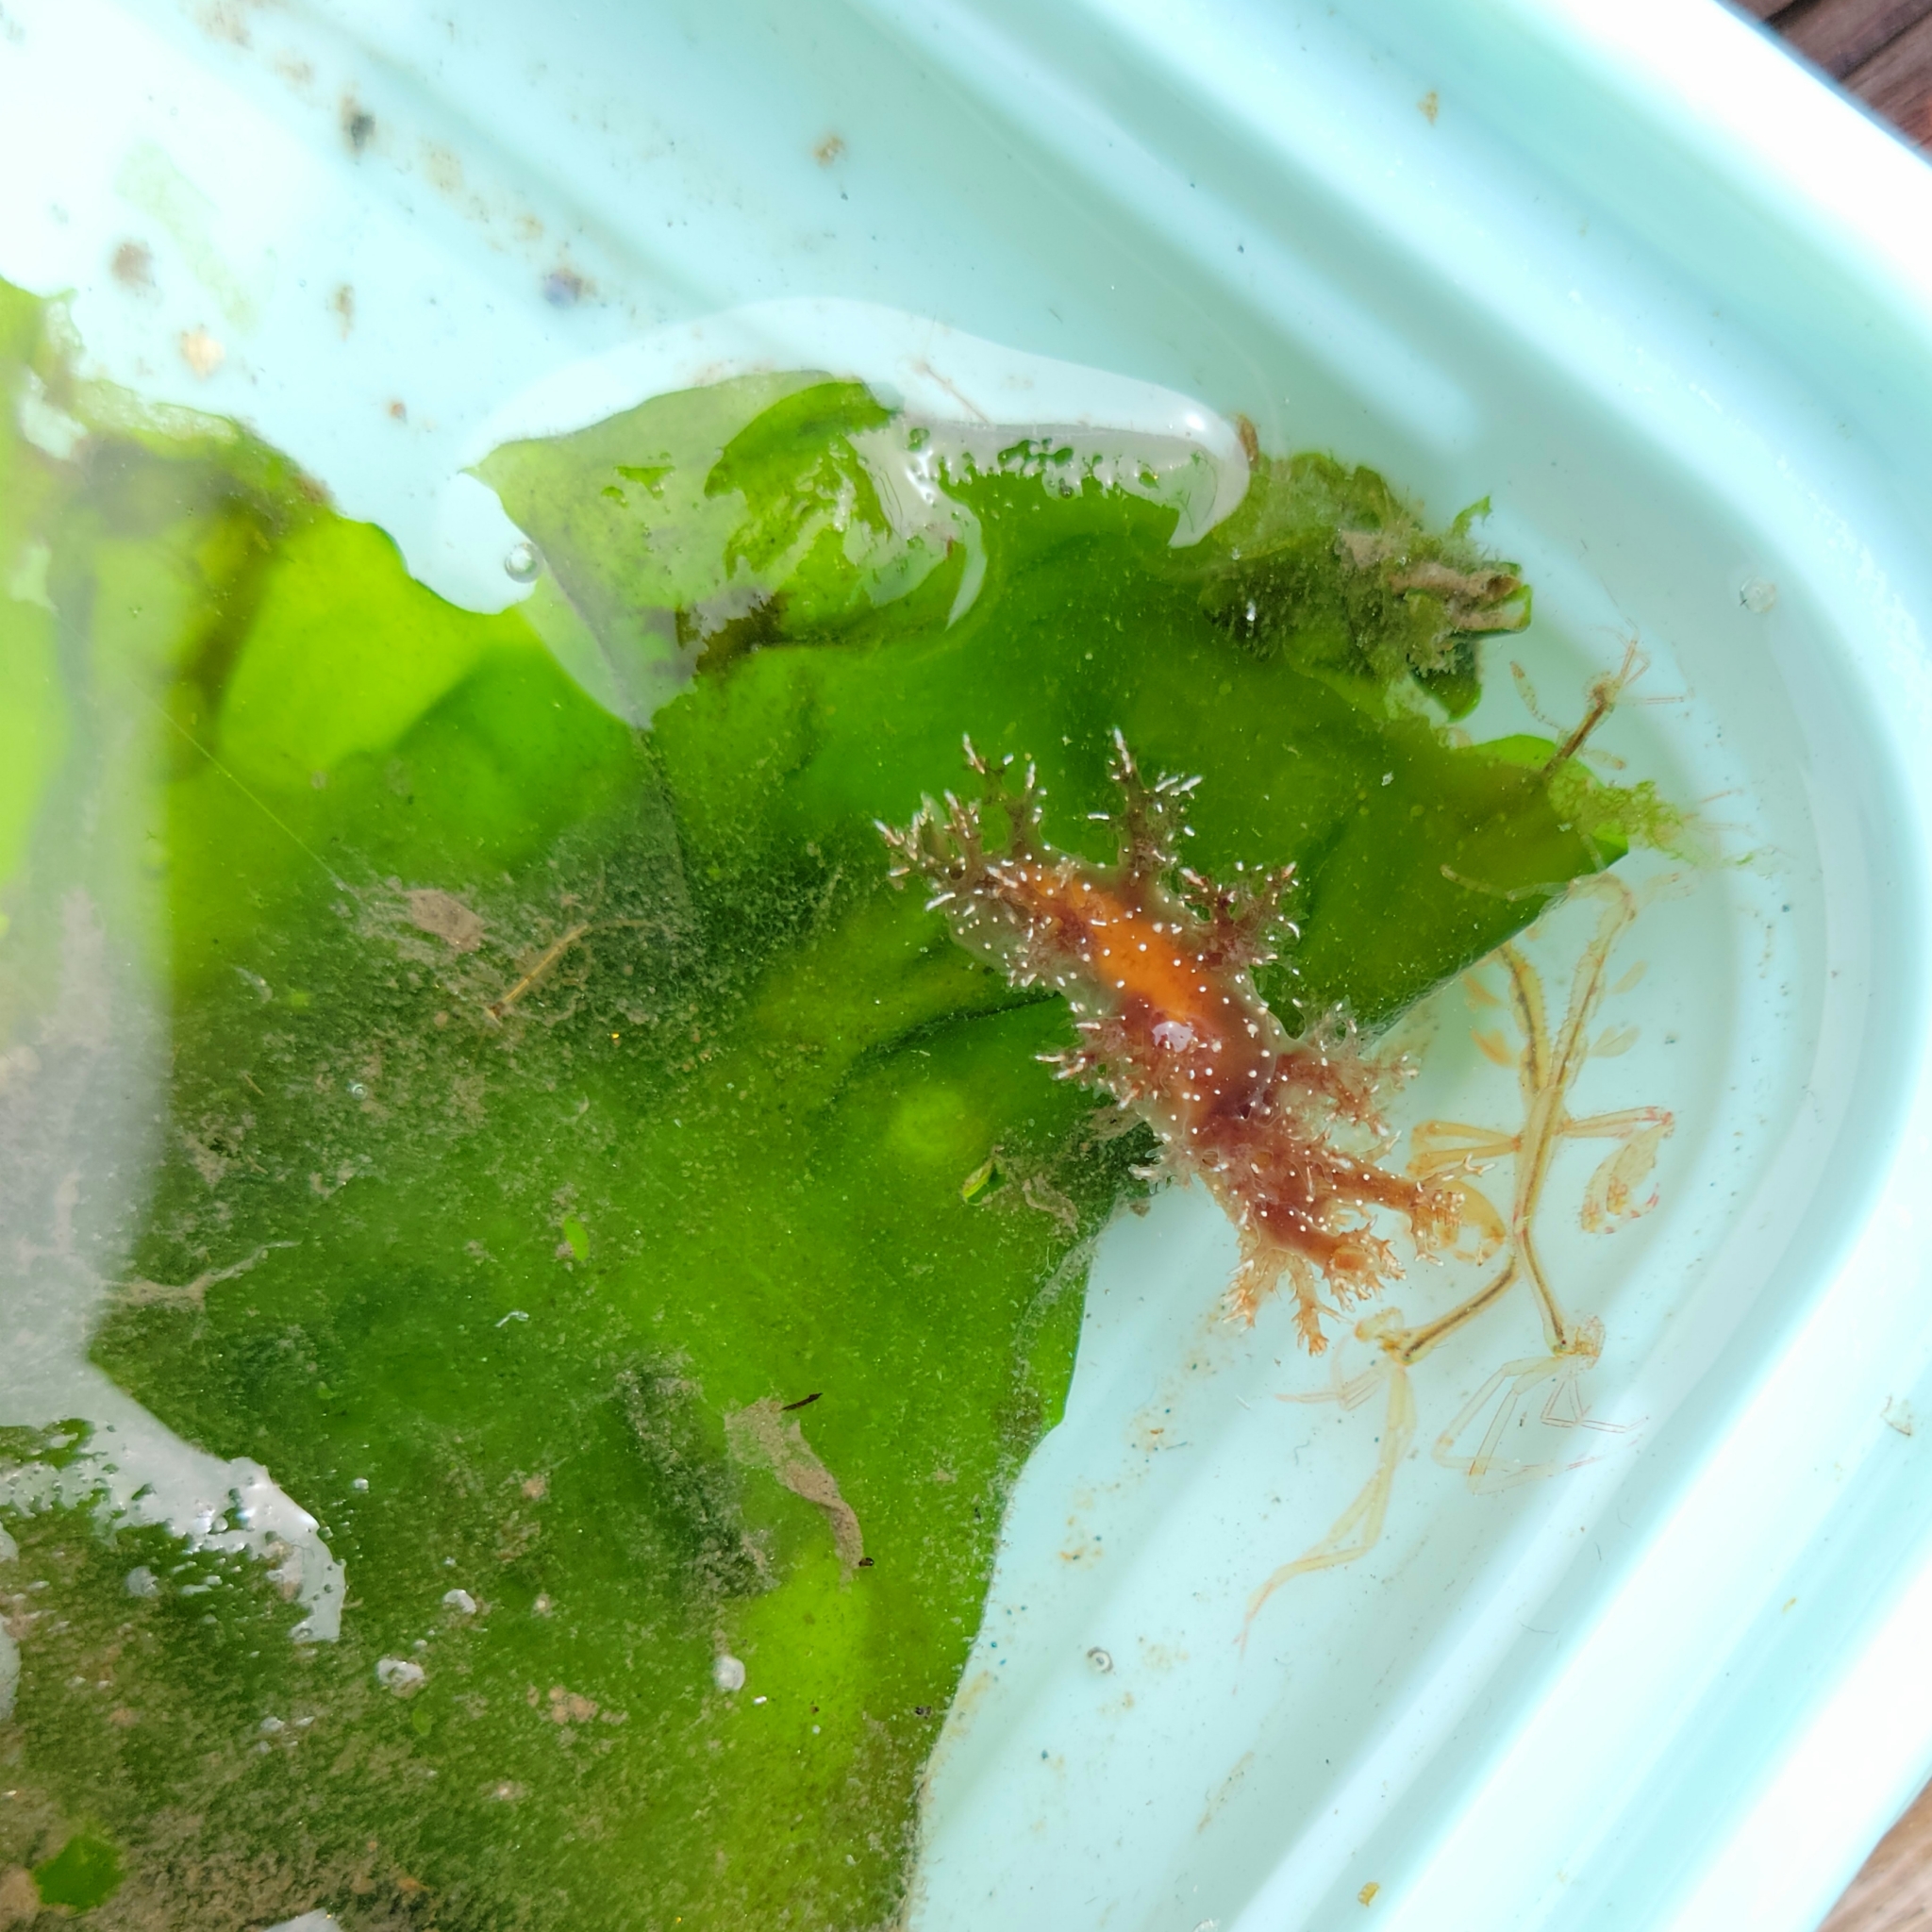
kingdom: Animalia
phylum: Mollusca
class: Gastropoda
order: Nudibranchia
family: Dendronotidae
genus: Dendronotus
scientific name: Dendronotus venustus
